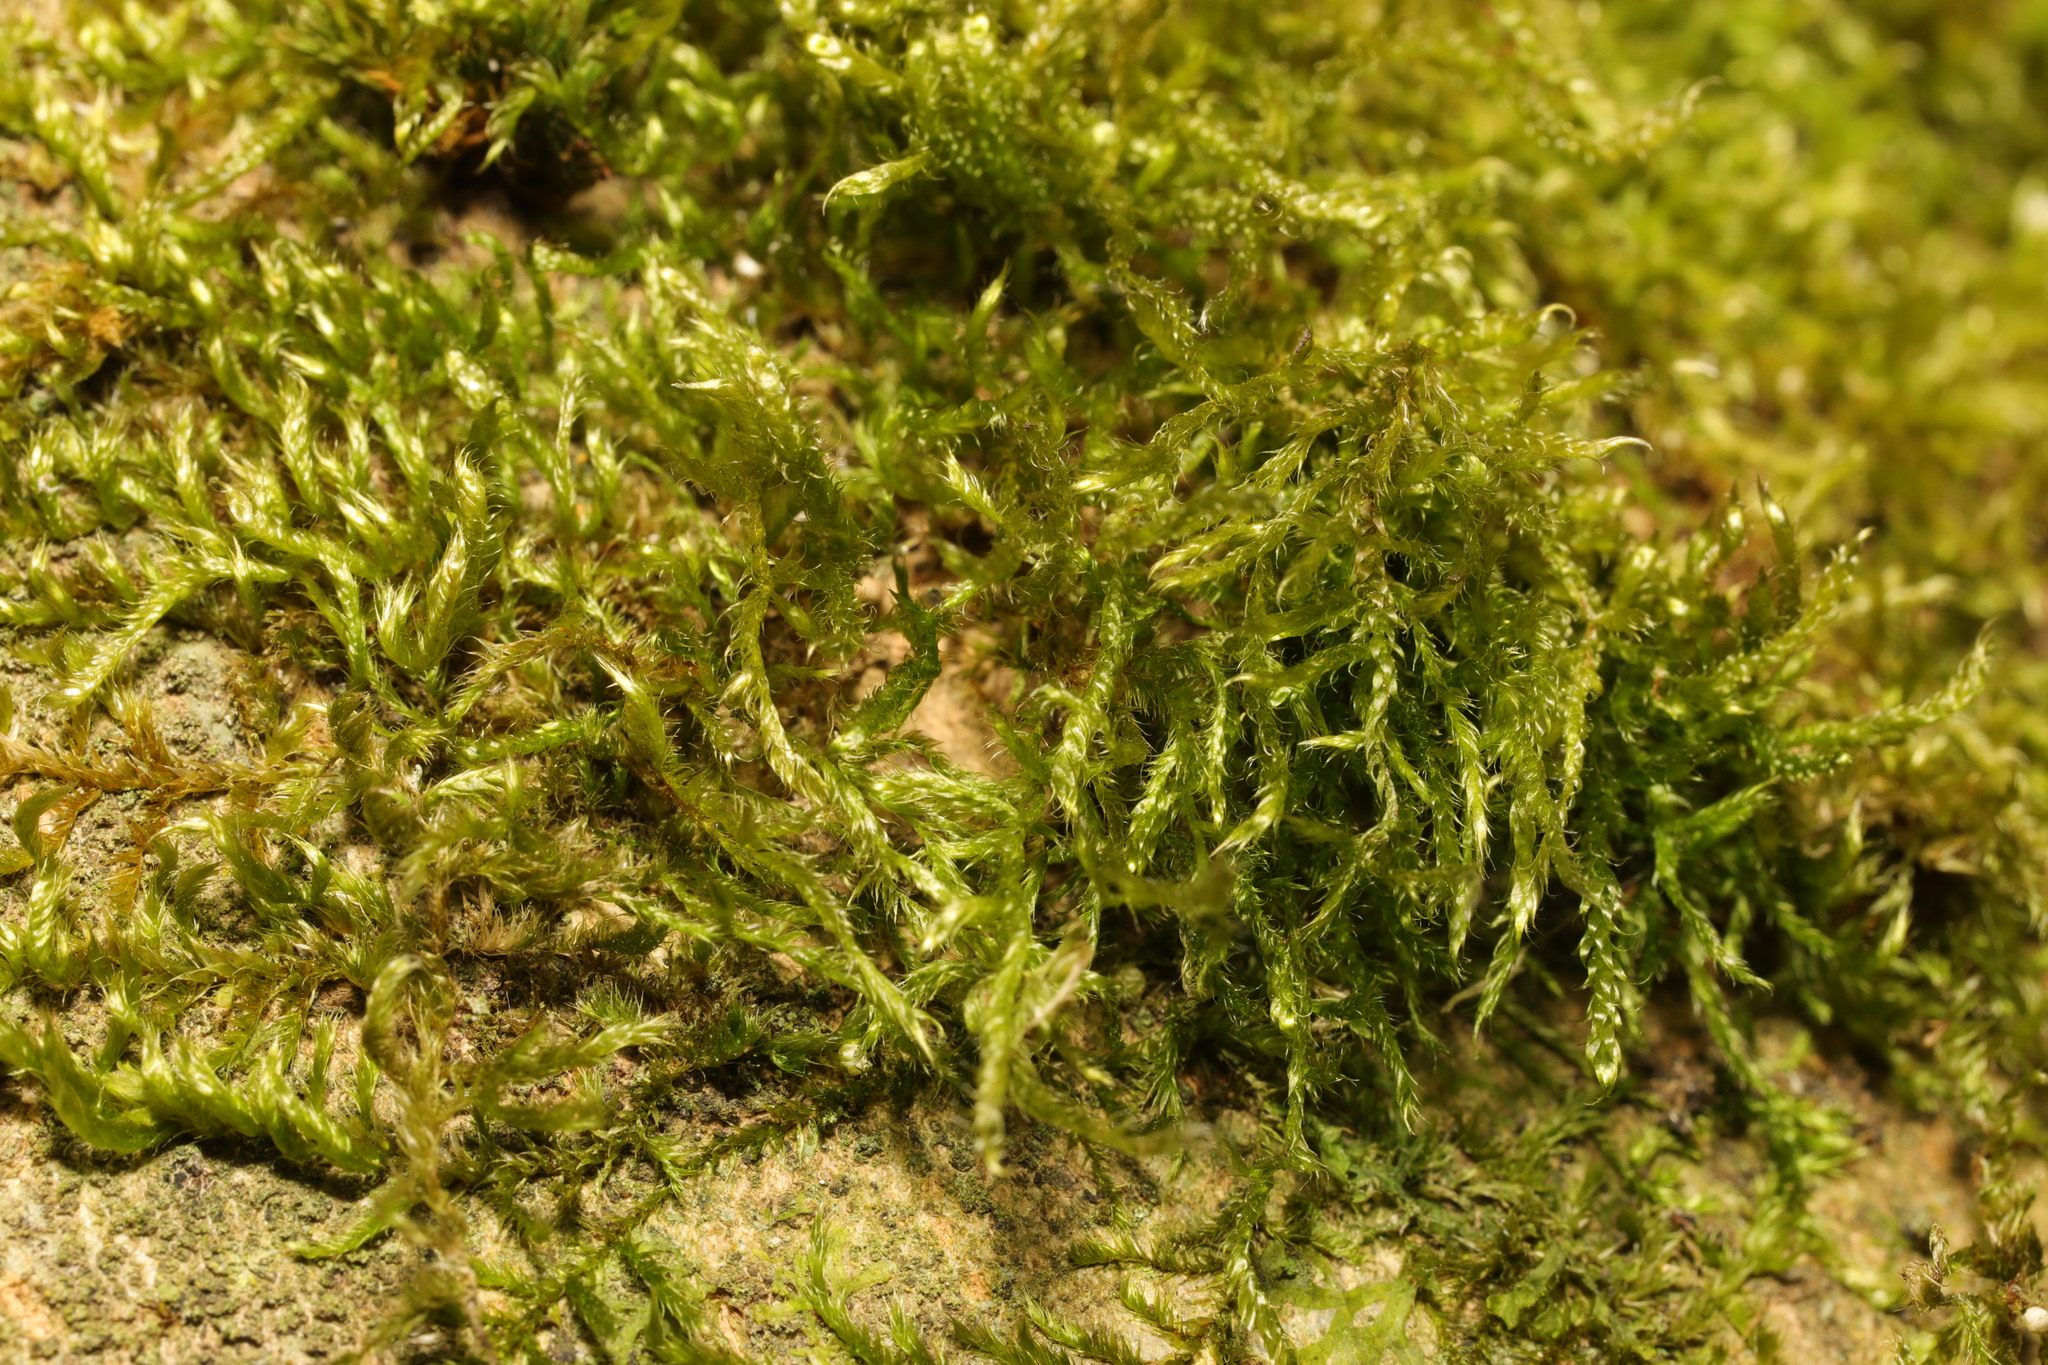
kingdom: Plantae
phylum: Bryophyta
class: Bryopsida
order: Hypnales
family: Brachytheciaceae
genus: Brachythecium
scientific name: Brachythecium rutabulum
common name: Rough-stalked feather-moss
